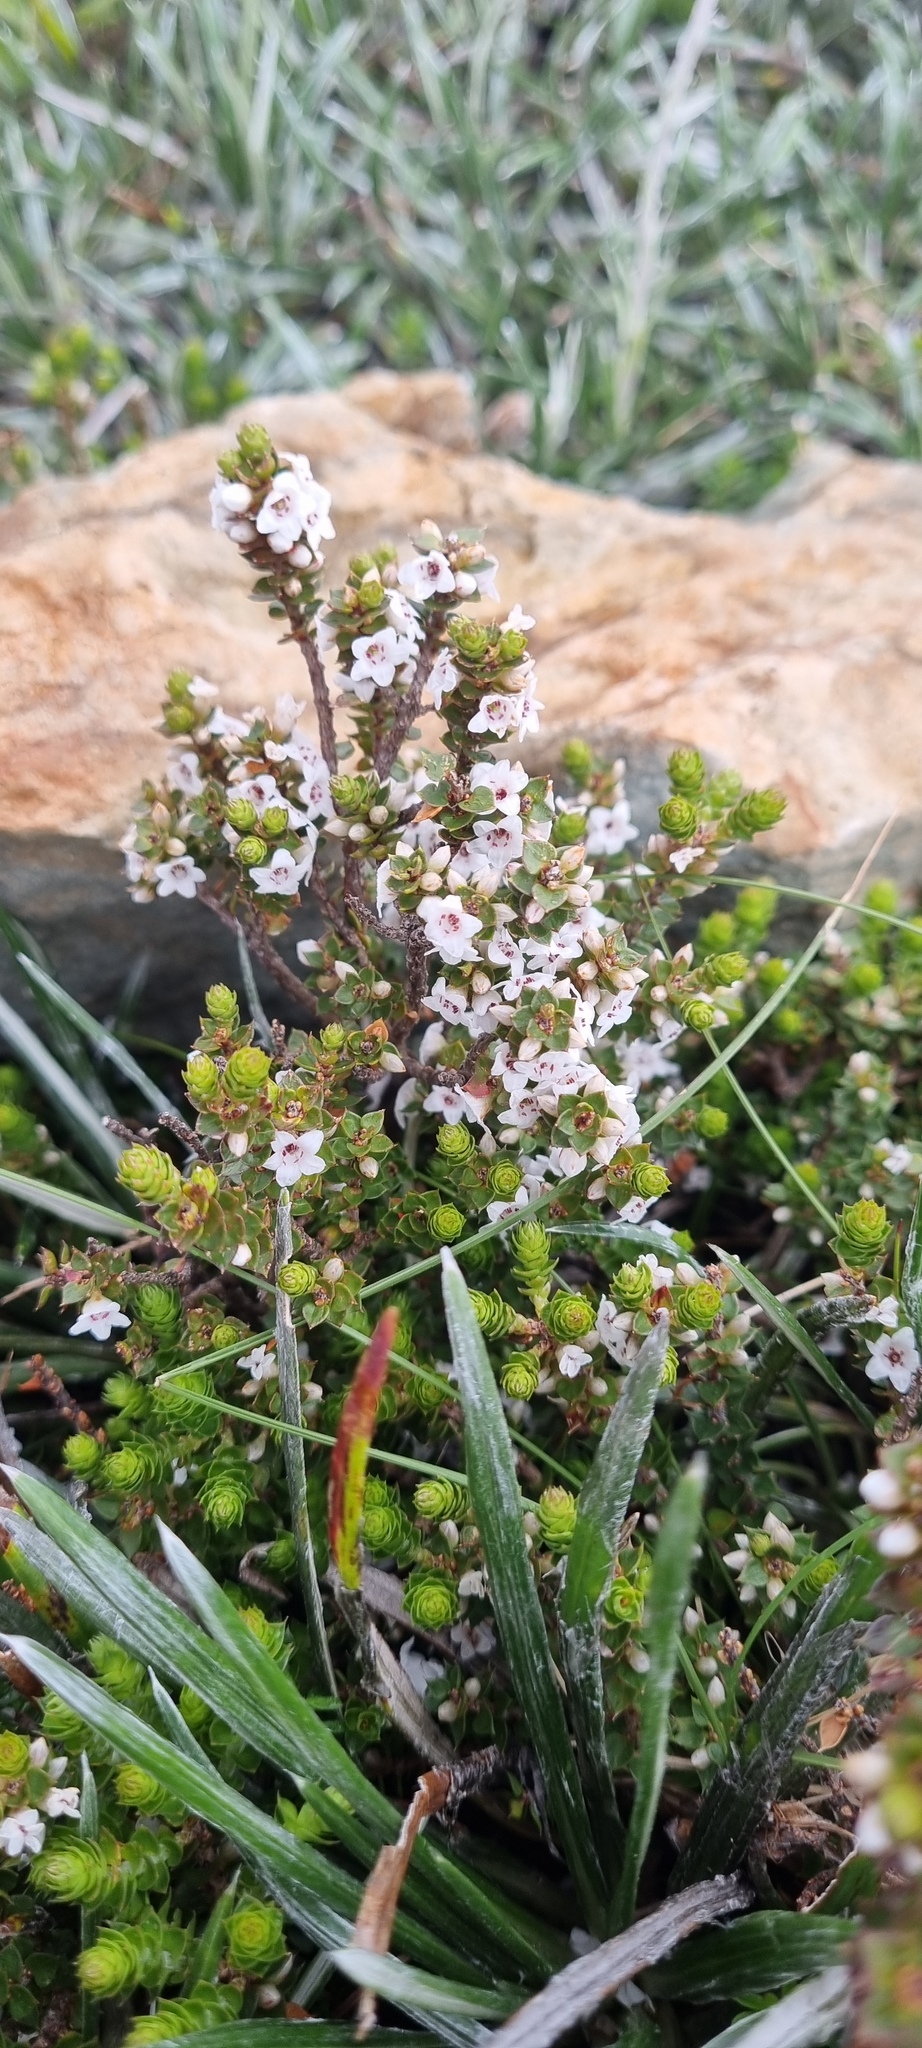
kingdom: Plantae
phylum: Tracheophyta
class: Magnoliopsida
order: Ericales
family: Ericaceae
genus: Epacris
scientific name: Epacris gunnii
